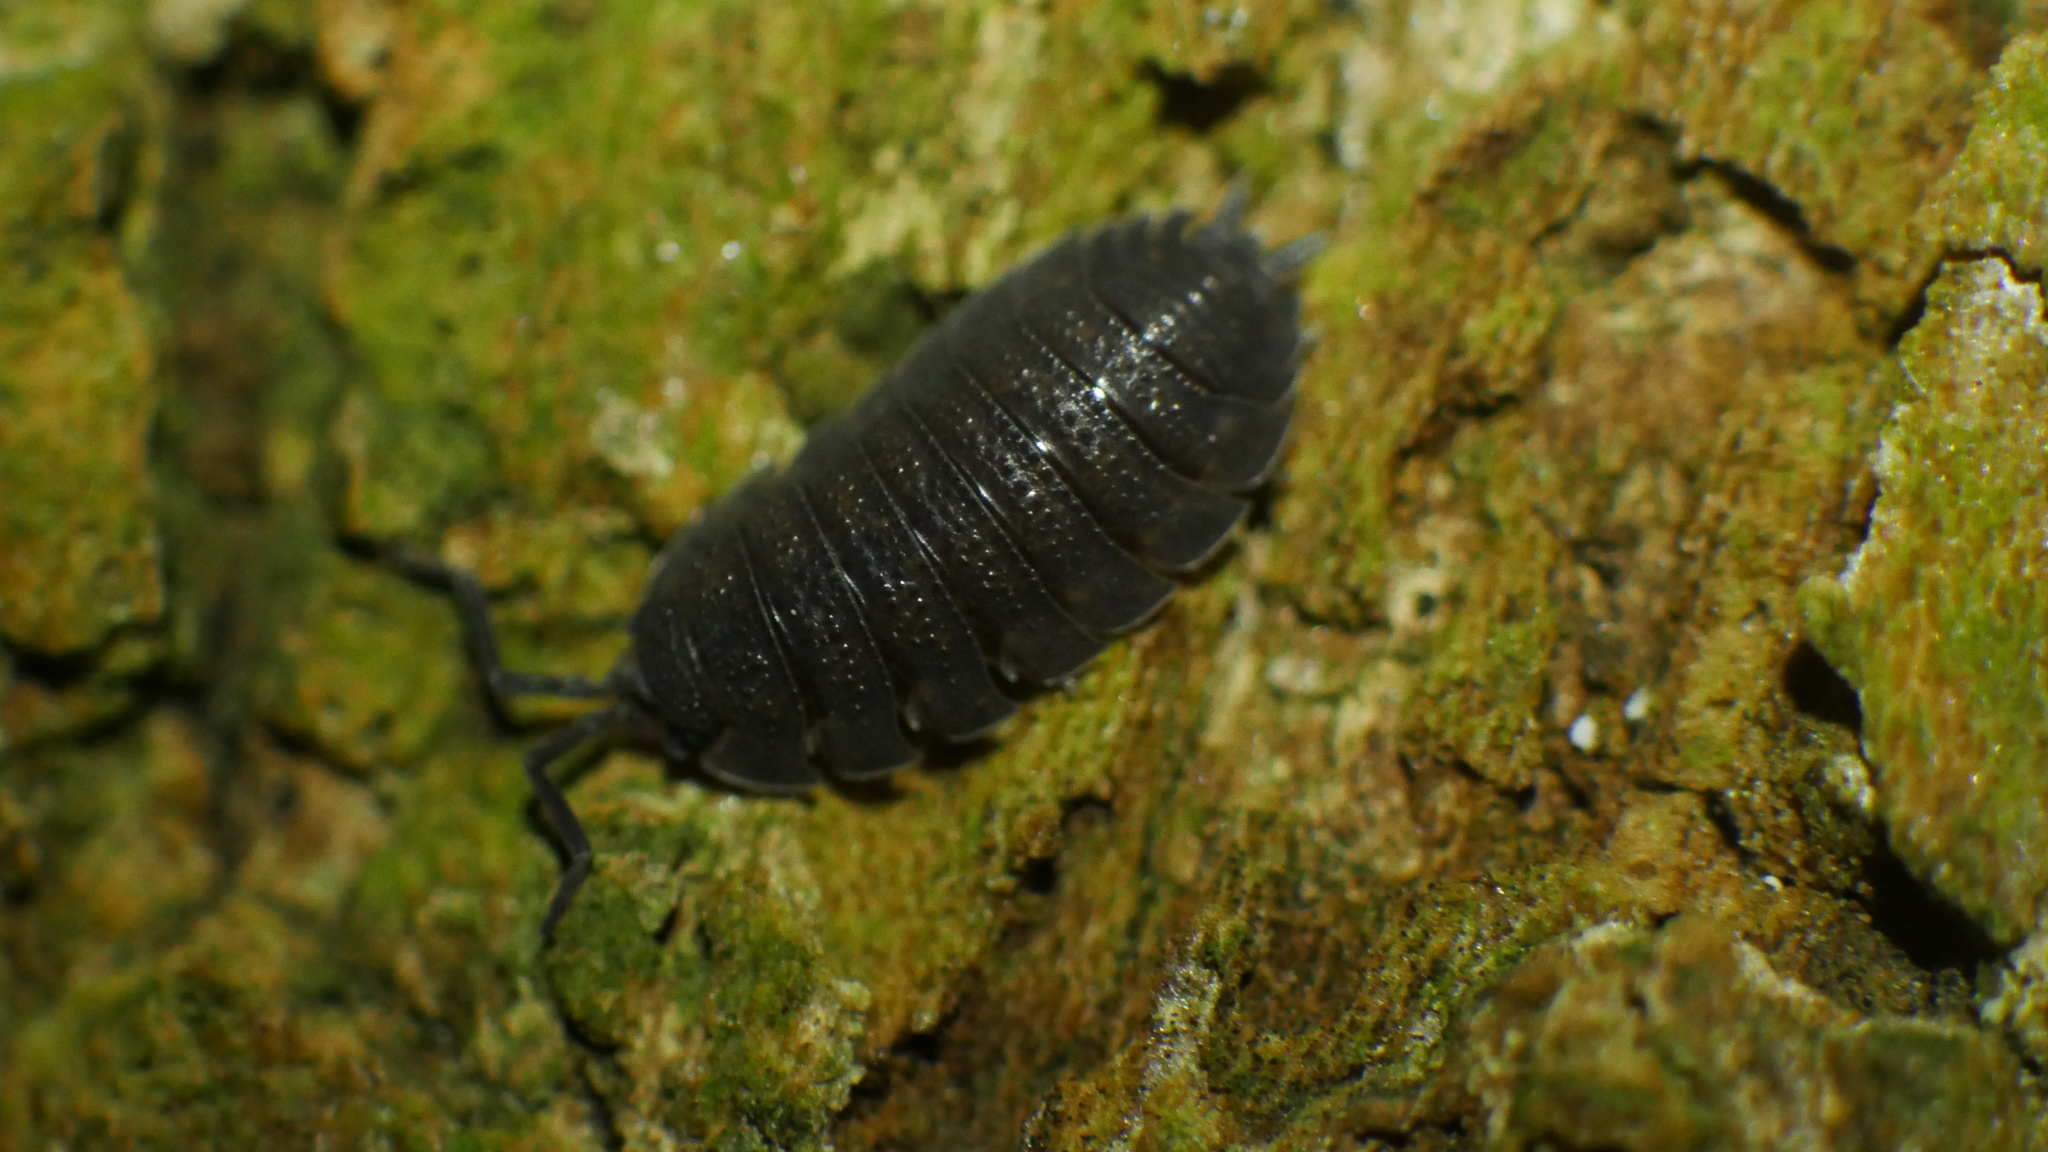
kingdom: Animalia
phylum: Arthropoda
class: Malacostraca
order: Isopoda
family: Porcellionidae
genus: Porcellio
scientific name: Porcellio scaber
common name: Common rough woodlouse
